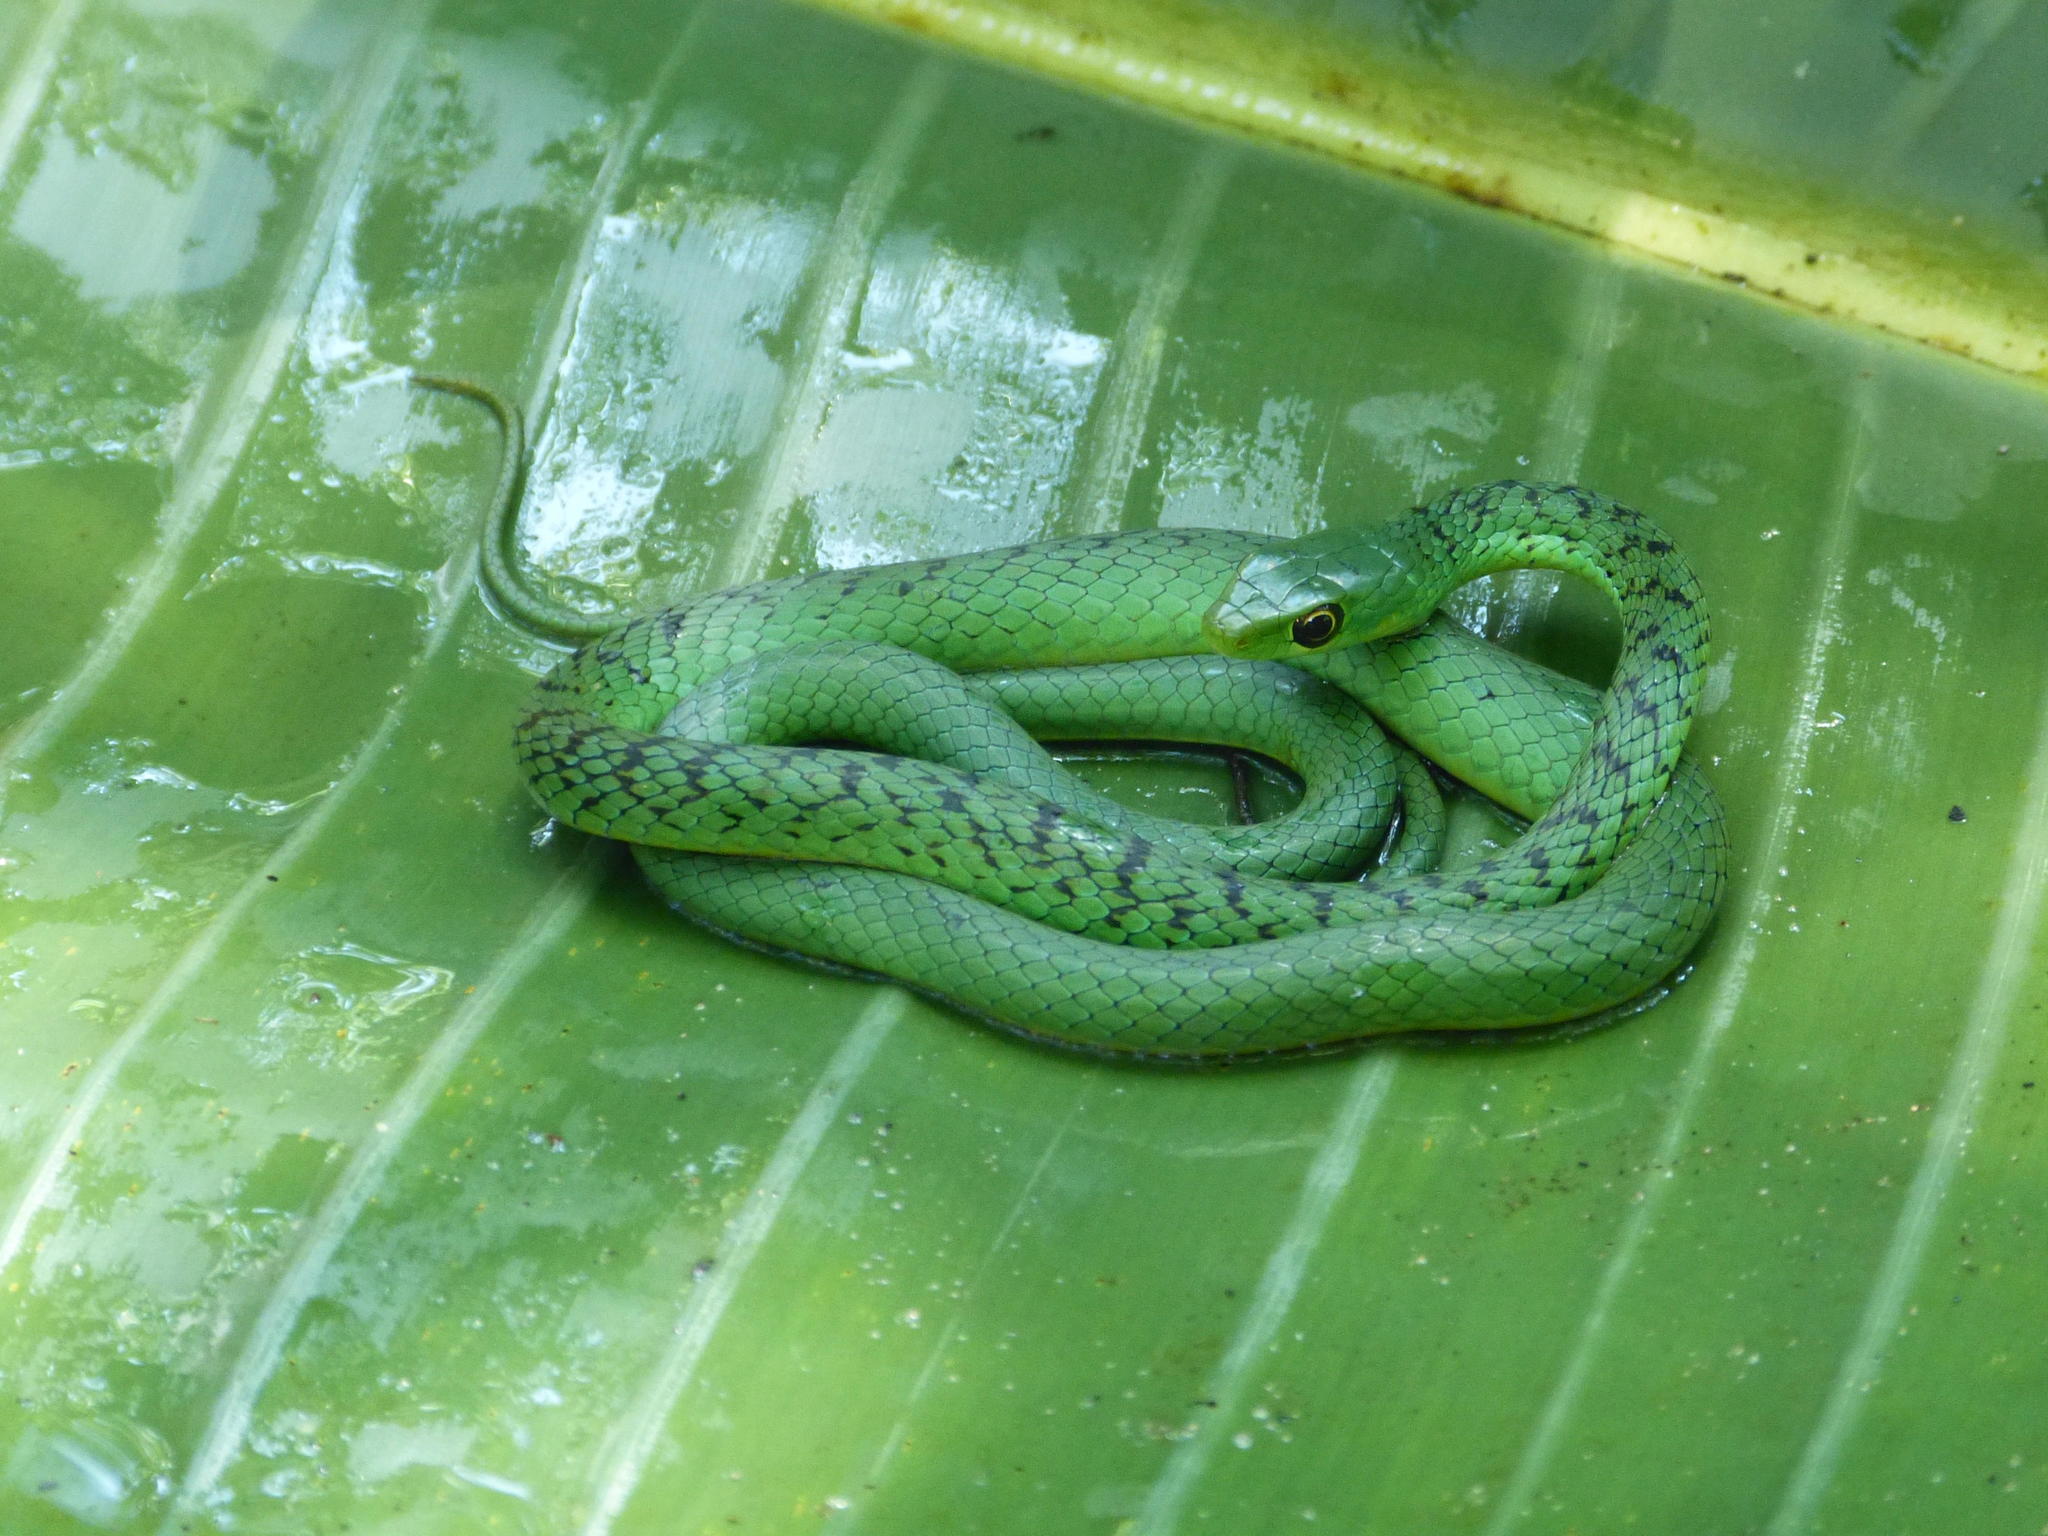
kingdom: Animalia
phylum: Chordata
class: Squamata
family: Colubridae
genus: Philothamnus
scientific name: Philothamnus natalensis
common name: Eastern natal green snake
